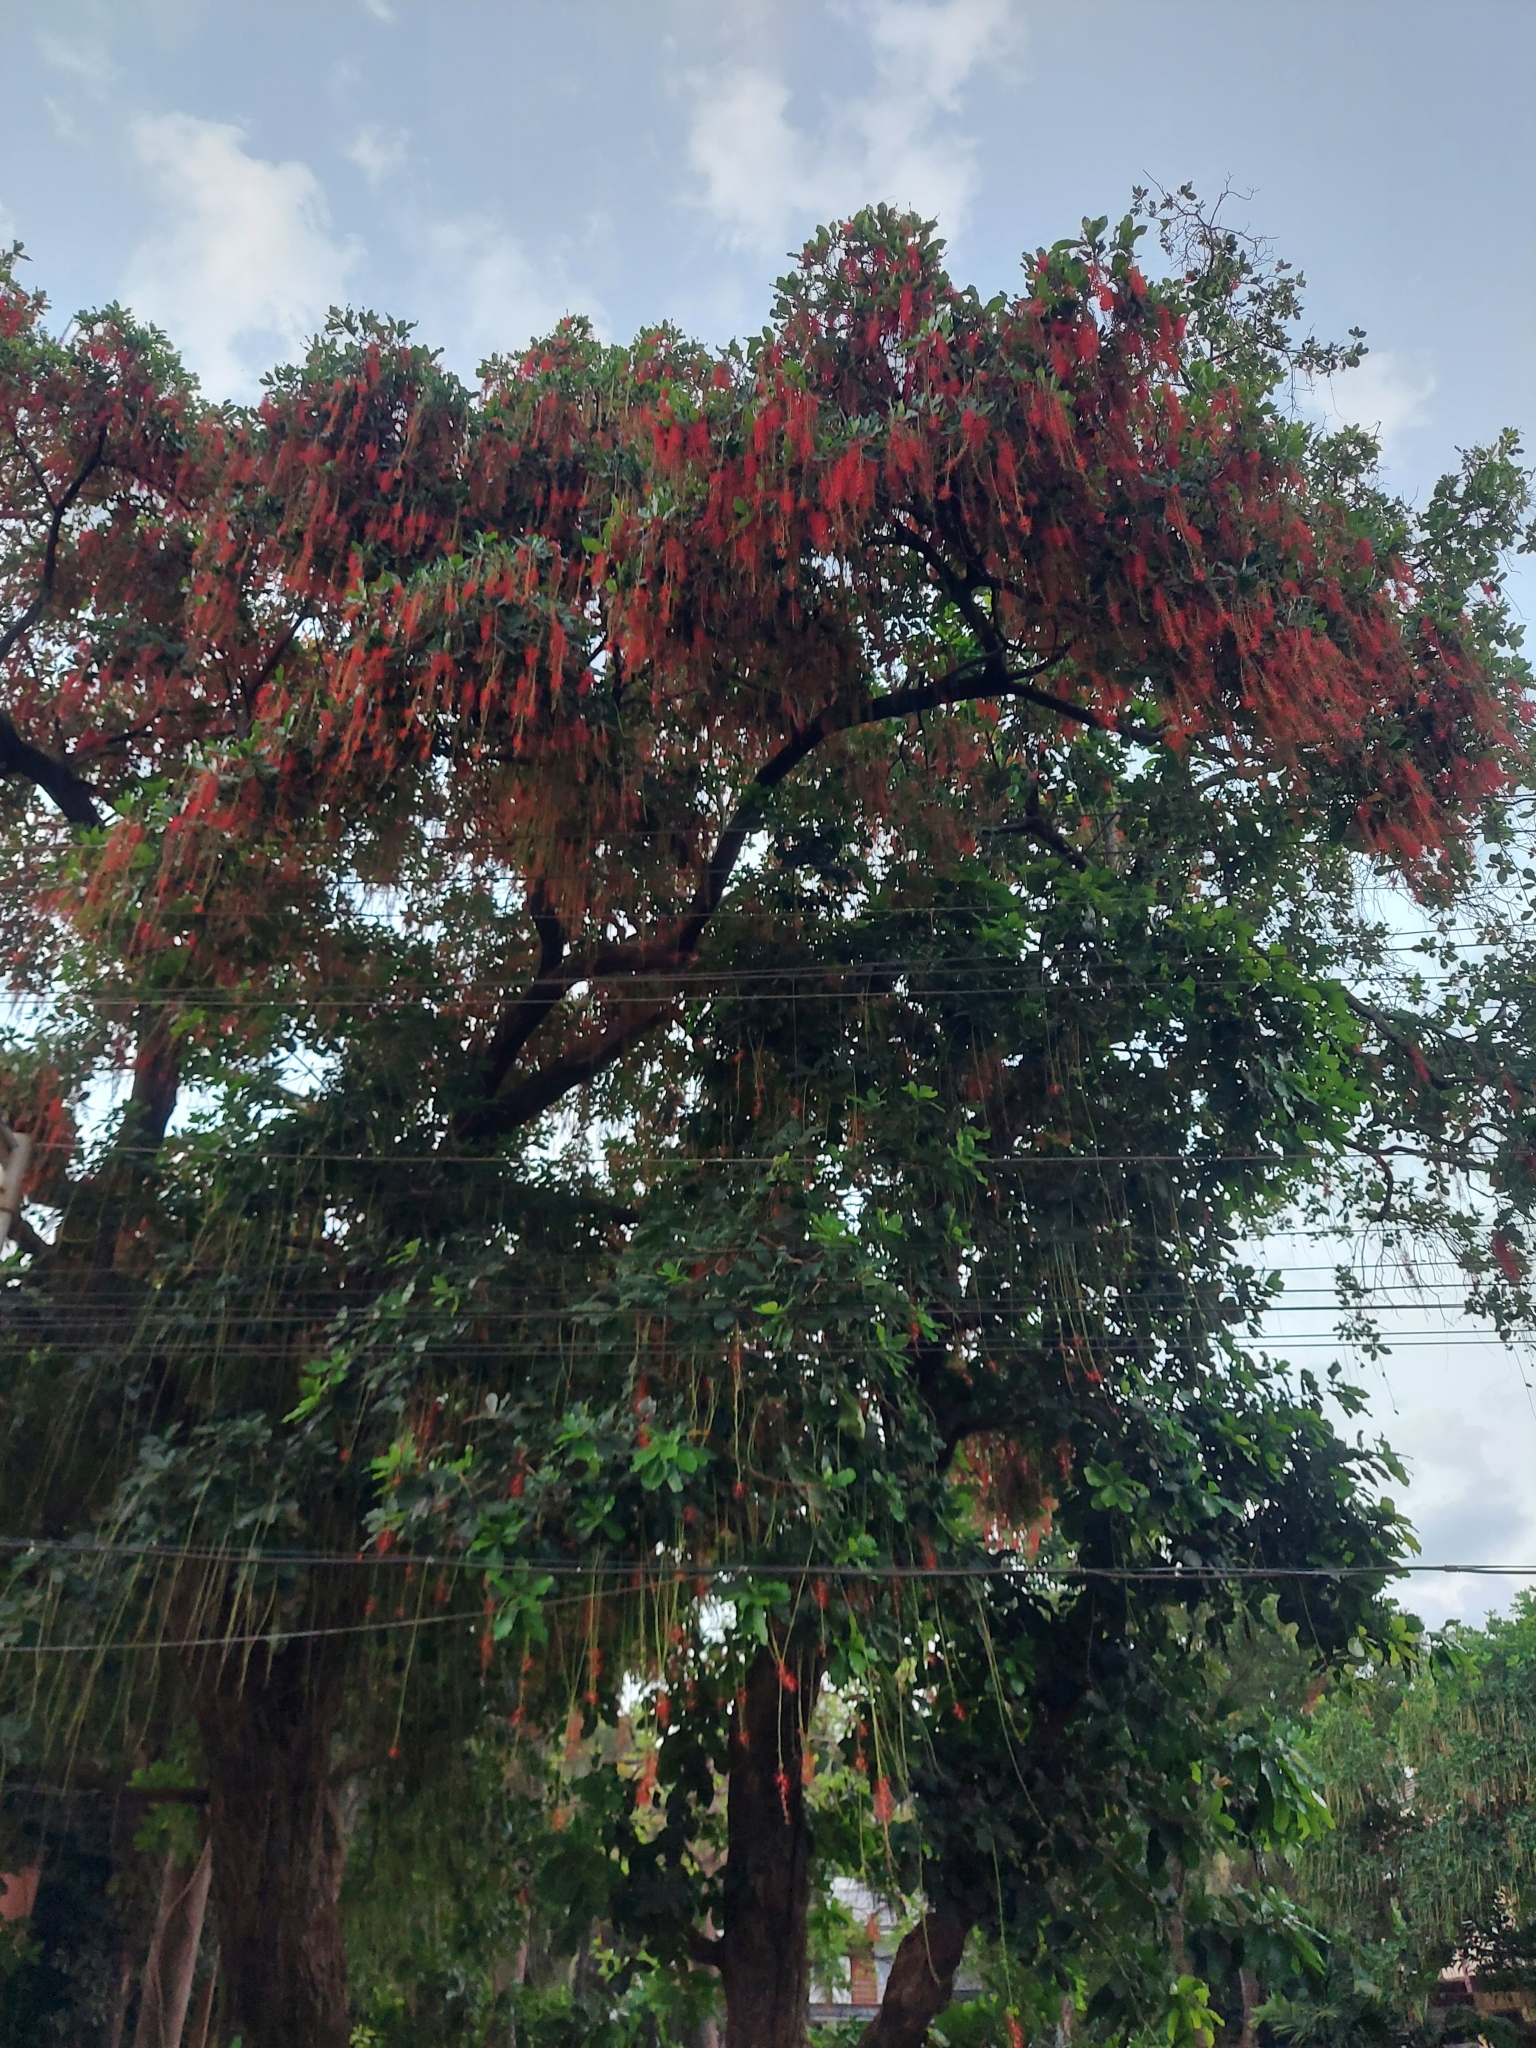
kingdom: Plantae
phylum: Tracheophyta
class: Magnoliopsida
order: Ericales
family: Lecythidaceae
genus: Barringtonia
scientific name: Barringtonia acutangula
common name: Freshwater mangrove
